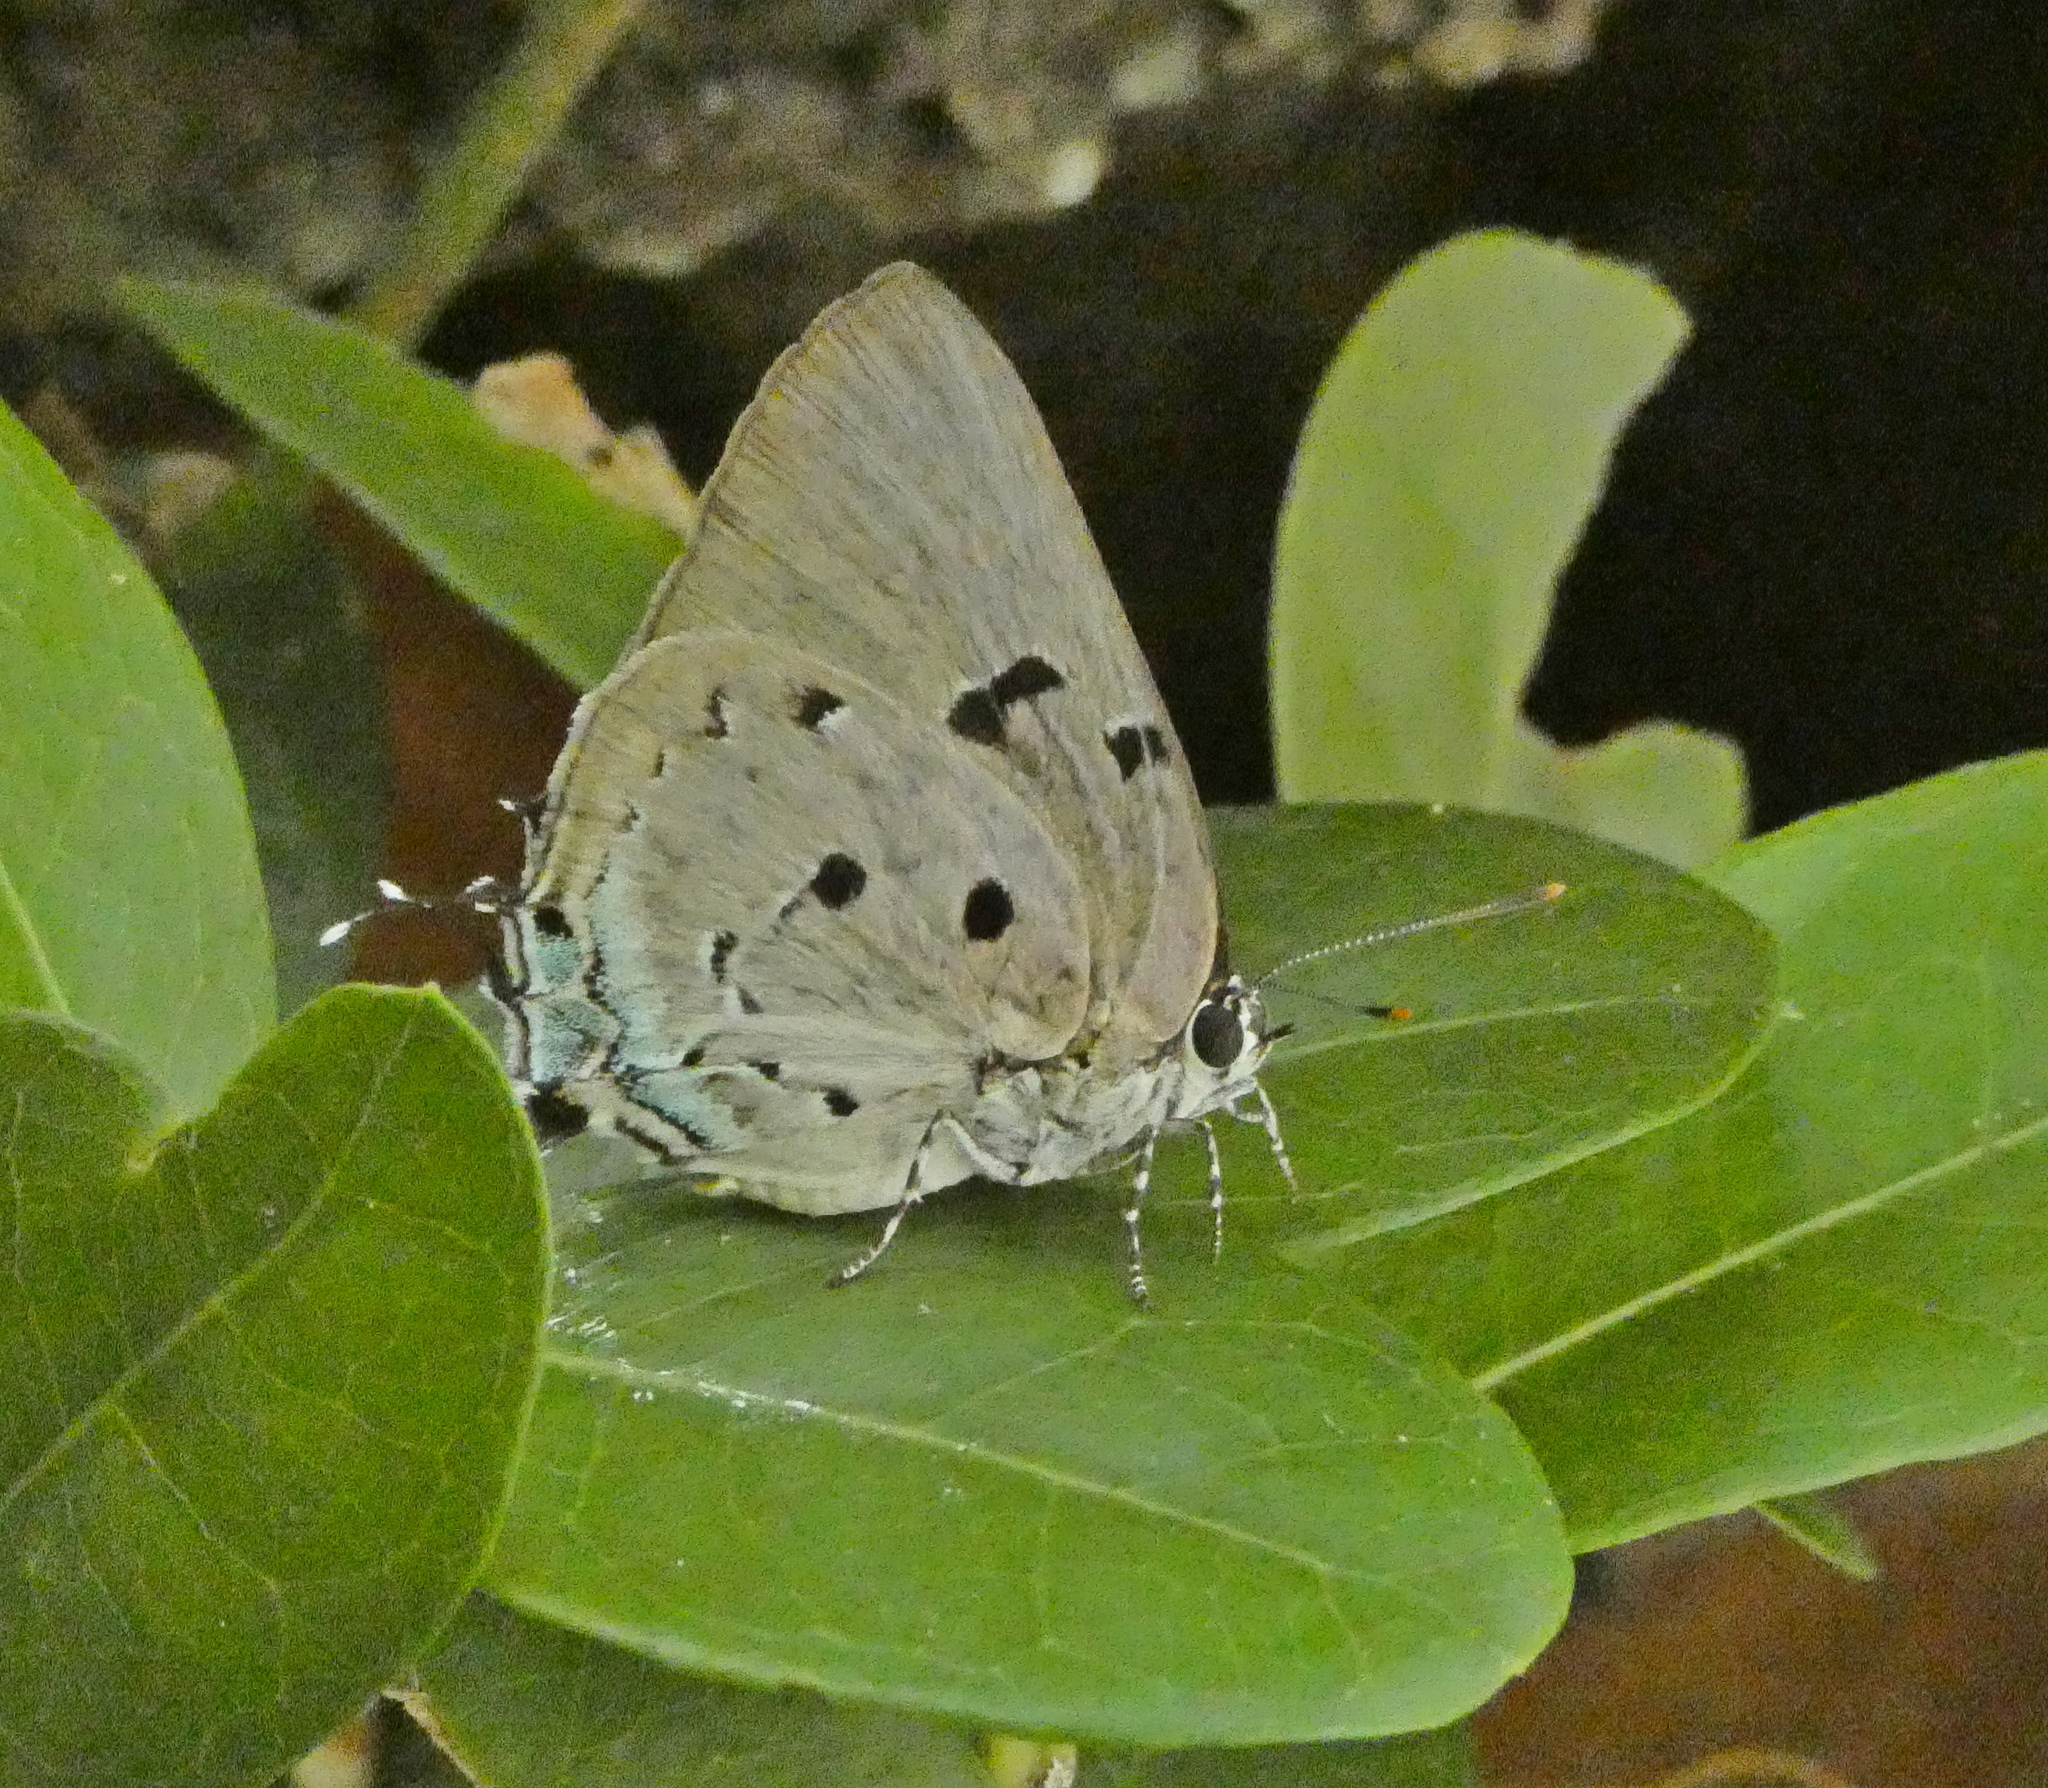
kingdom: Animalia
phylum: Arthropoda
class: Insecta
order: Lepidoptera
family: Lycaenidae
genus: Oenomaus
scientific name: Oenomaus ortygnus
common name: Aquamarine hairstreak
